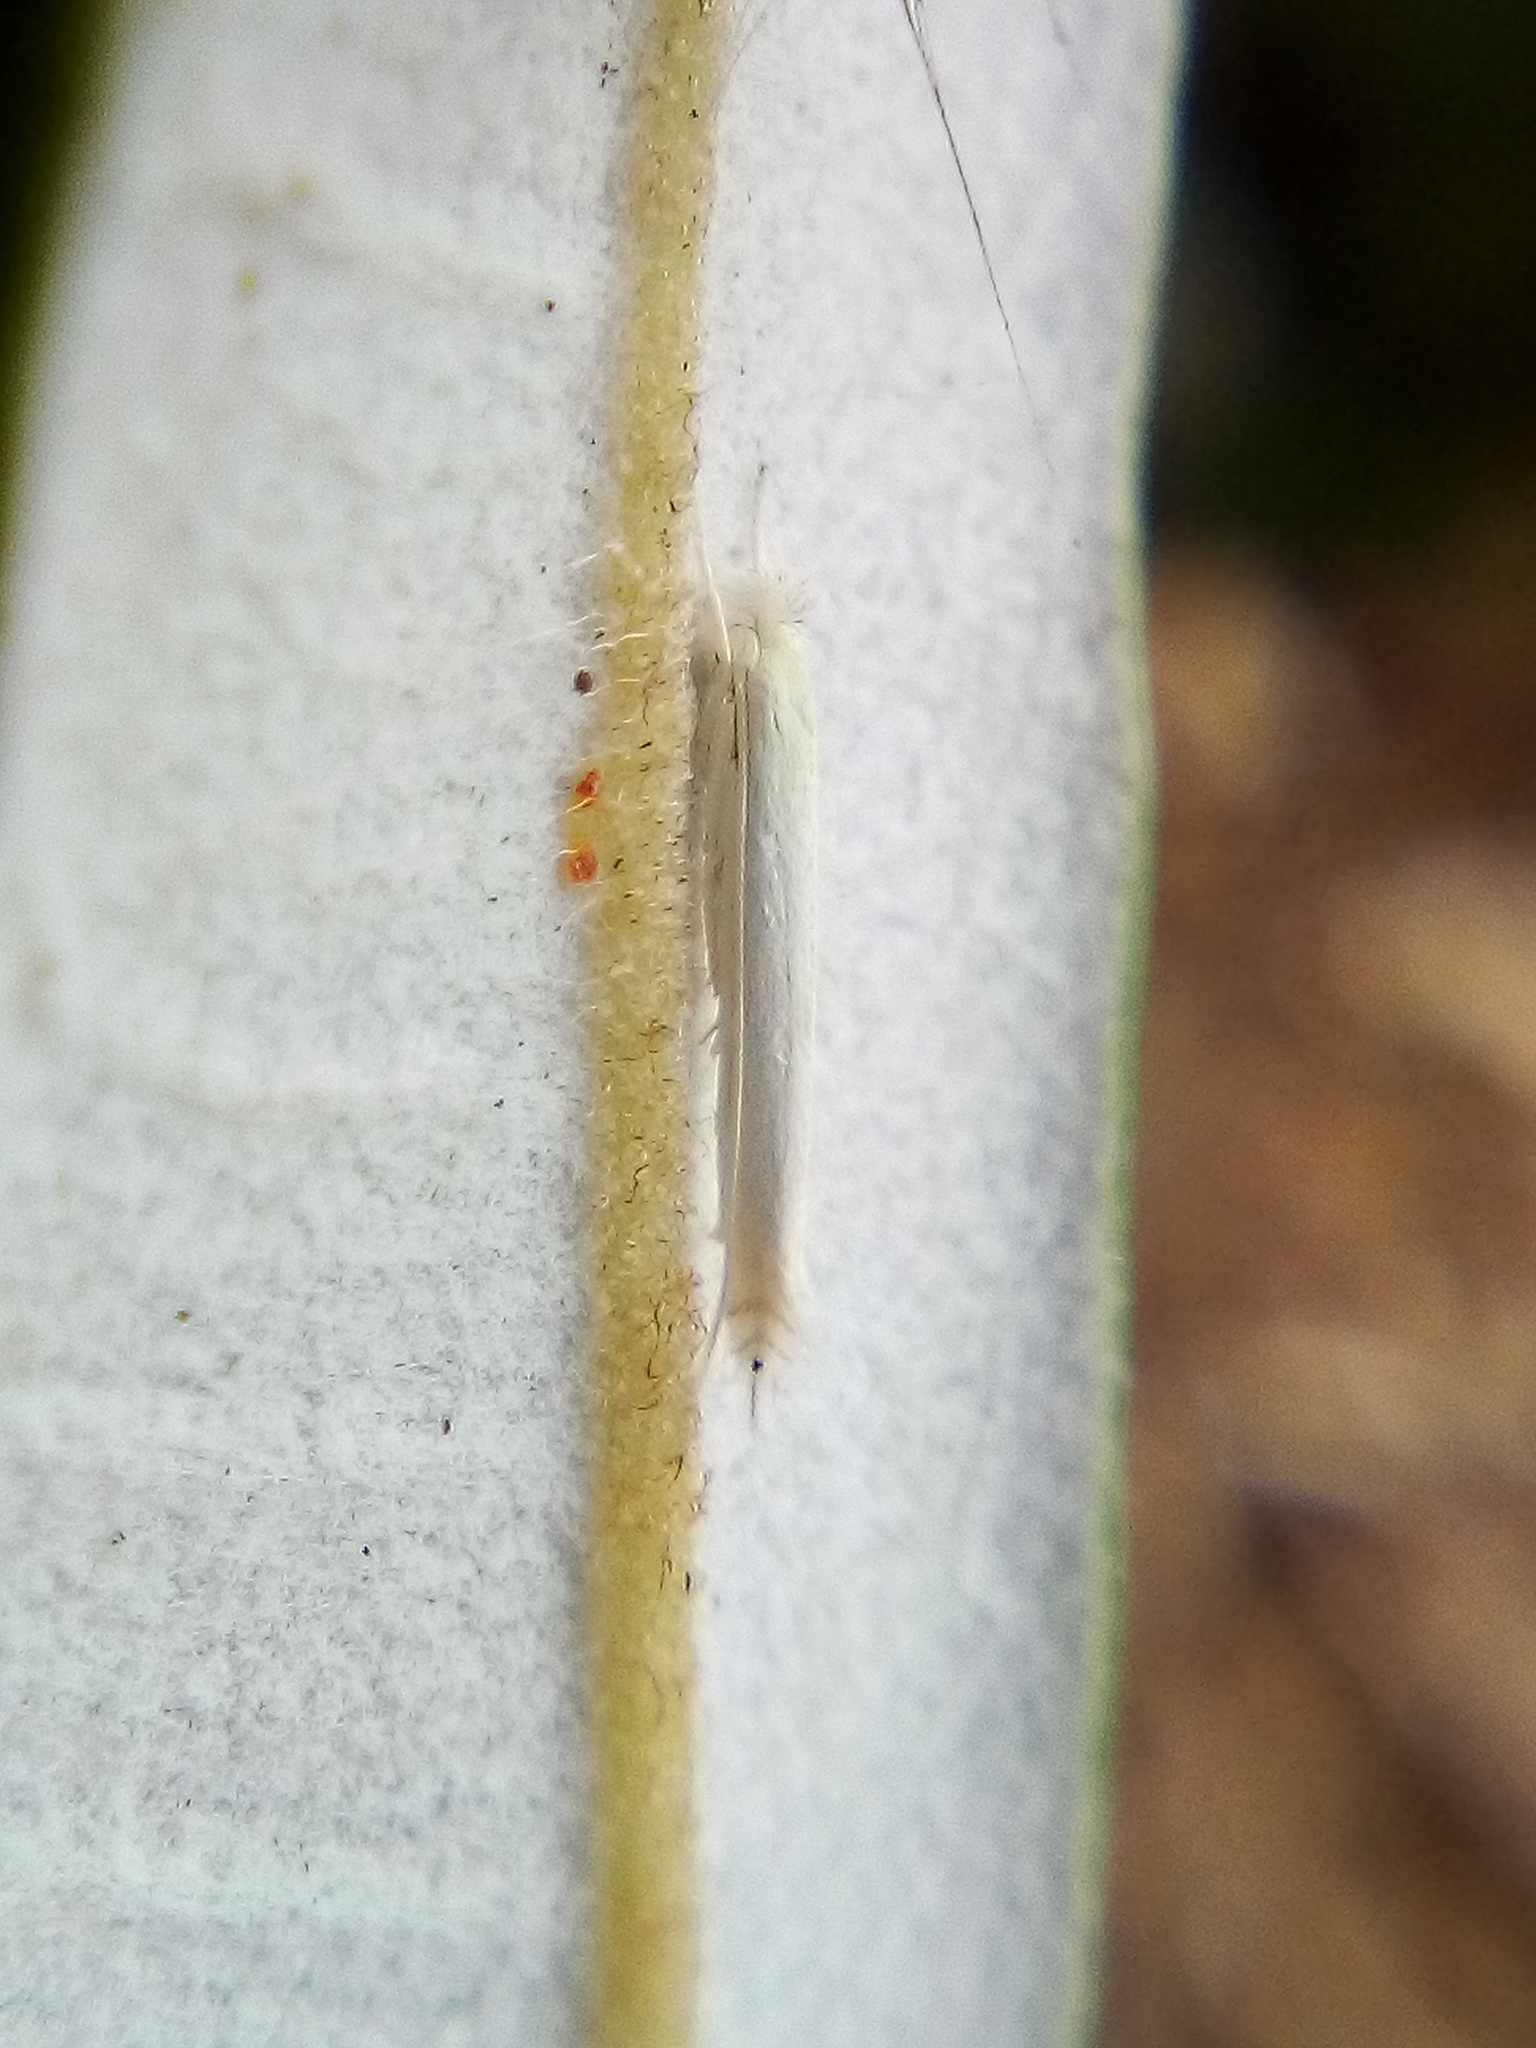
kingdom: Animalia
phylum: Arthropoda
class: Insecta
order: Lepidoptera
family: Lyonetiidae
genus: Stegommata
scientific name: Stegommata sulfuratella
